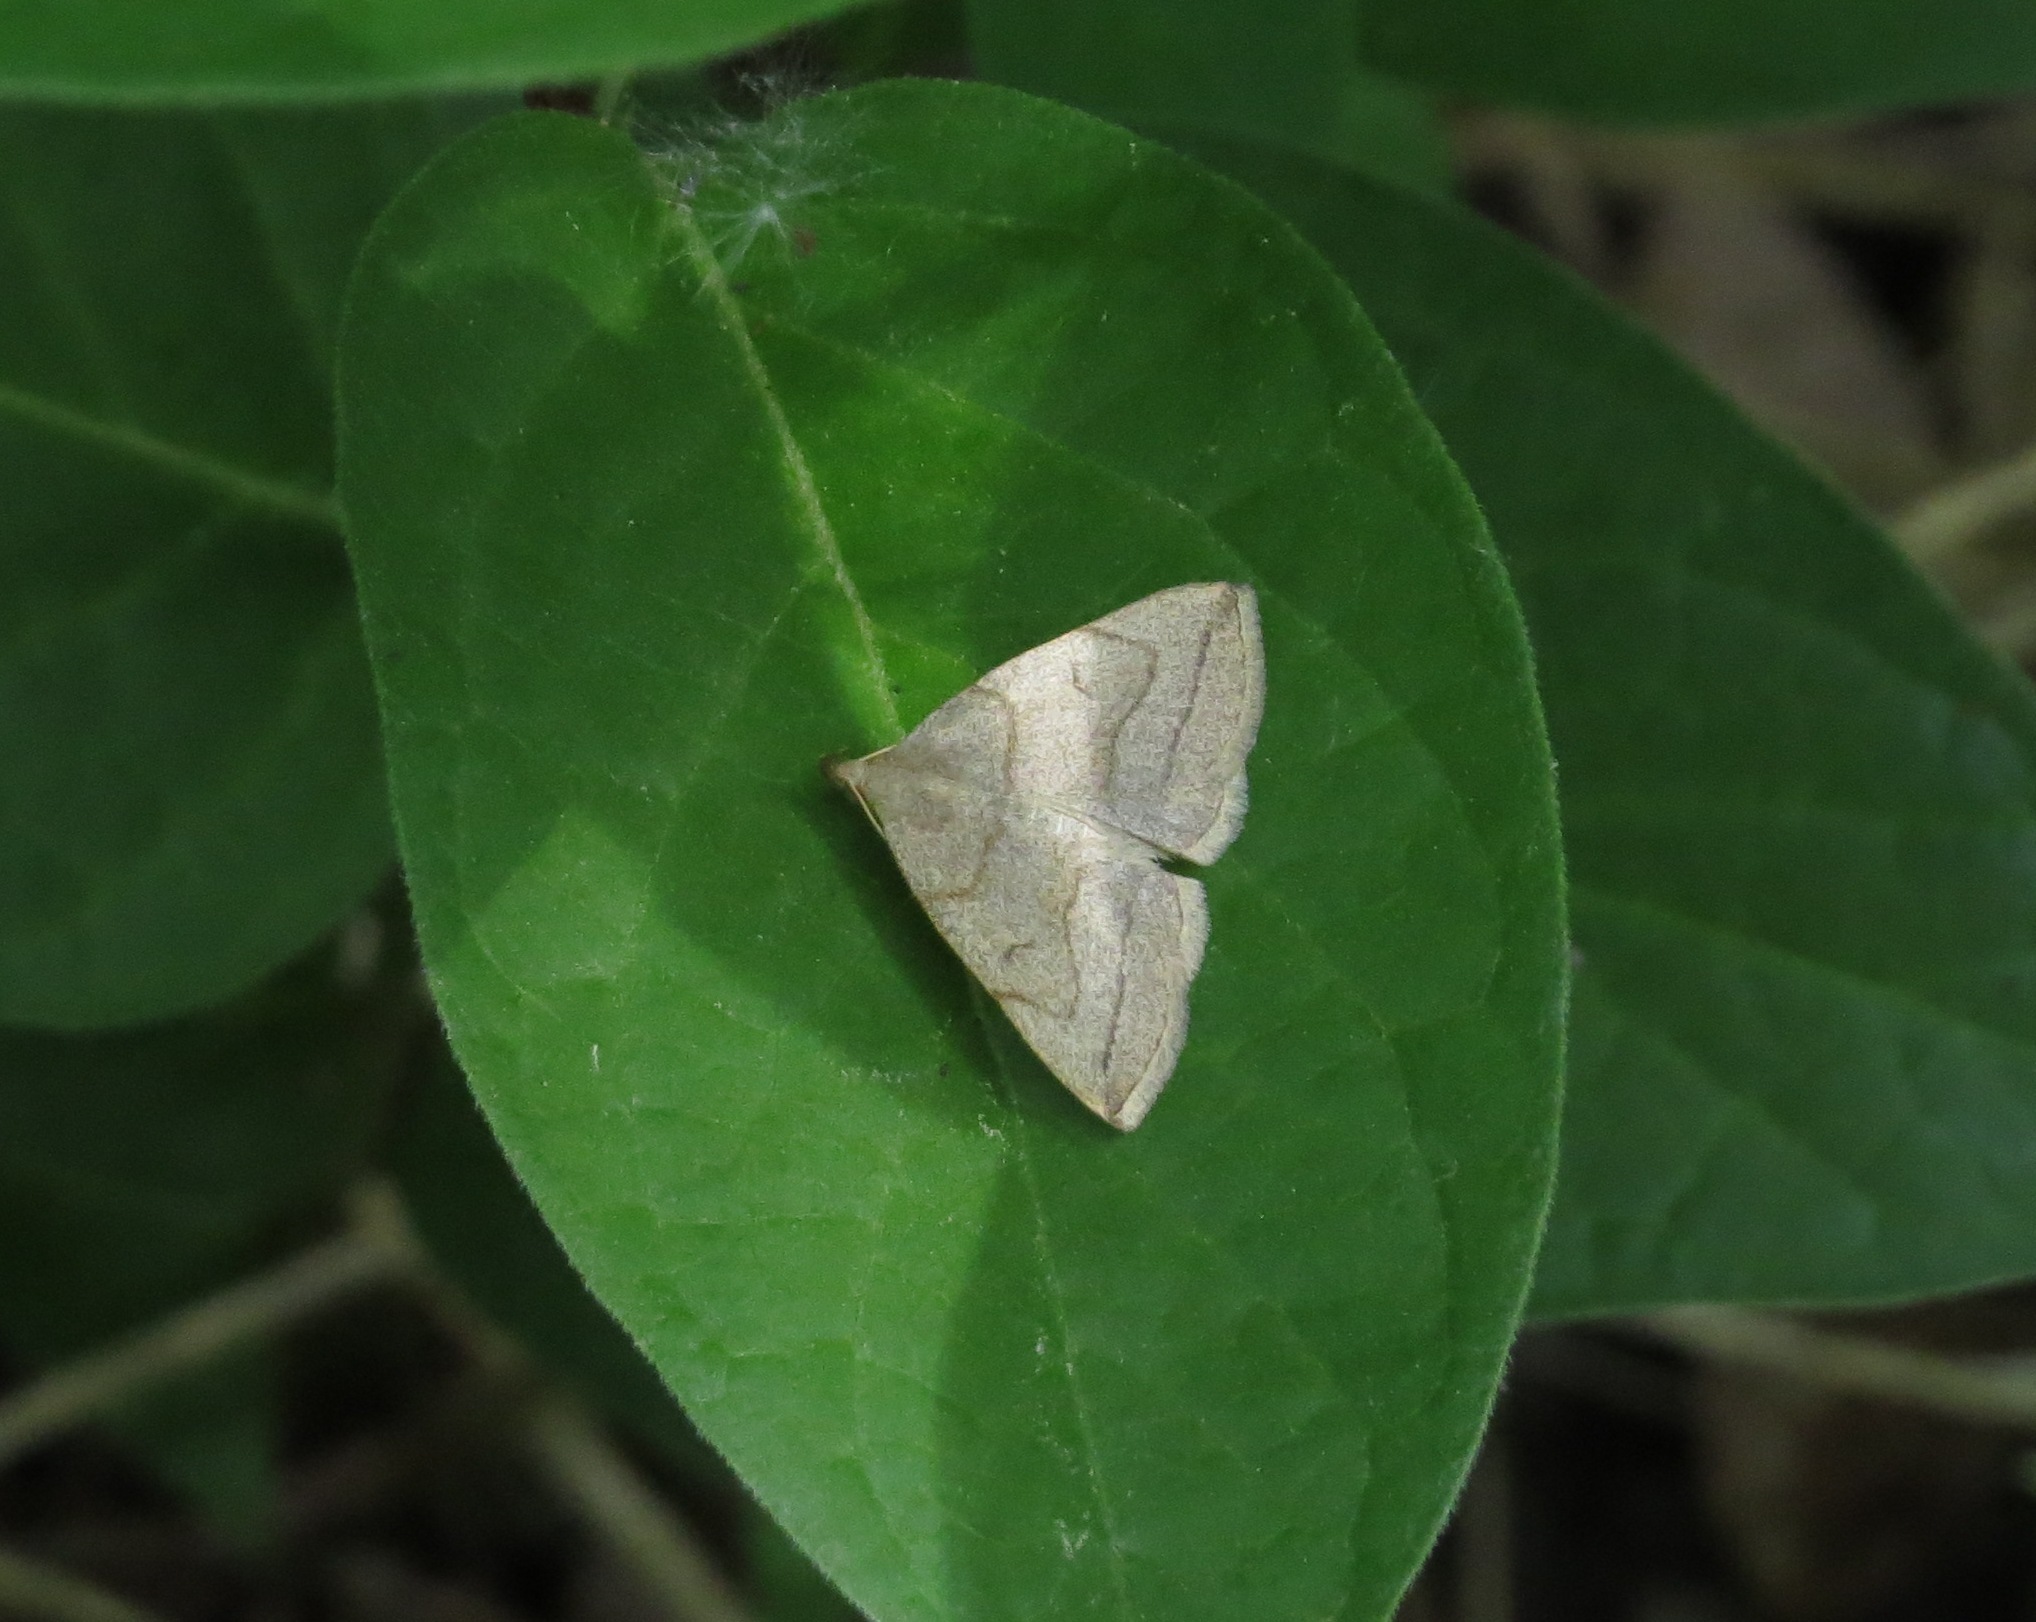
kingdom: Animalia
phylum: Arthropoda
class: Insecta
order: Lepidoptera
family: Erebidae
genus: Zanclognatha
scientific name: Zanclognatha pedipilalis
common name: Grayish fan-foot
